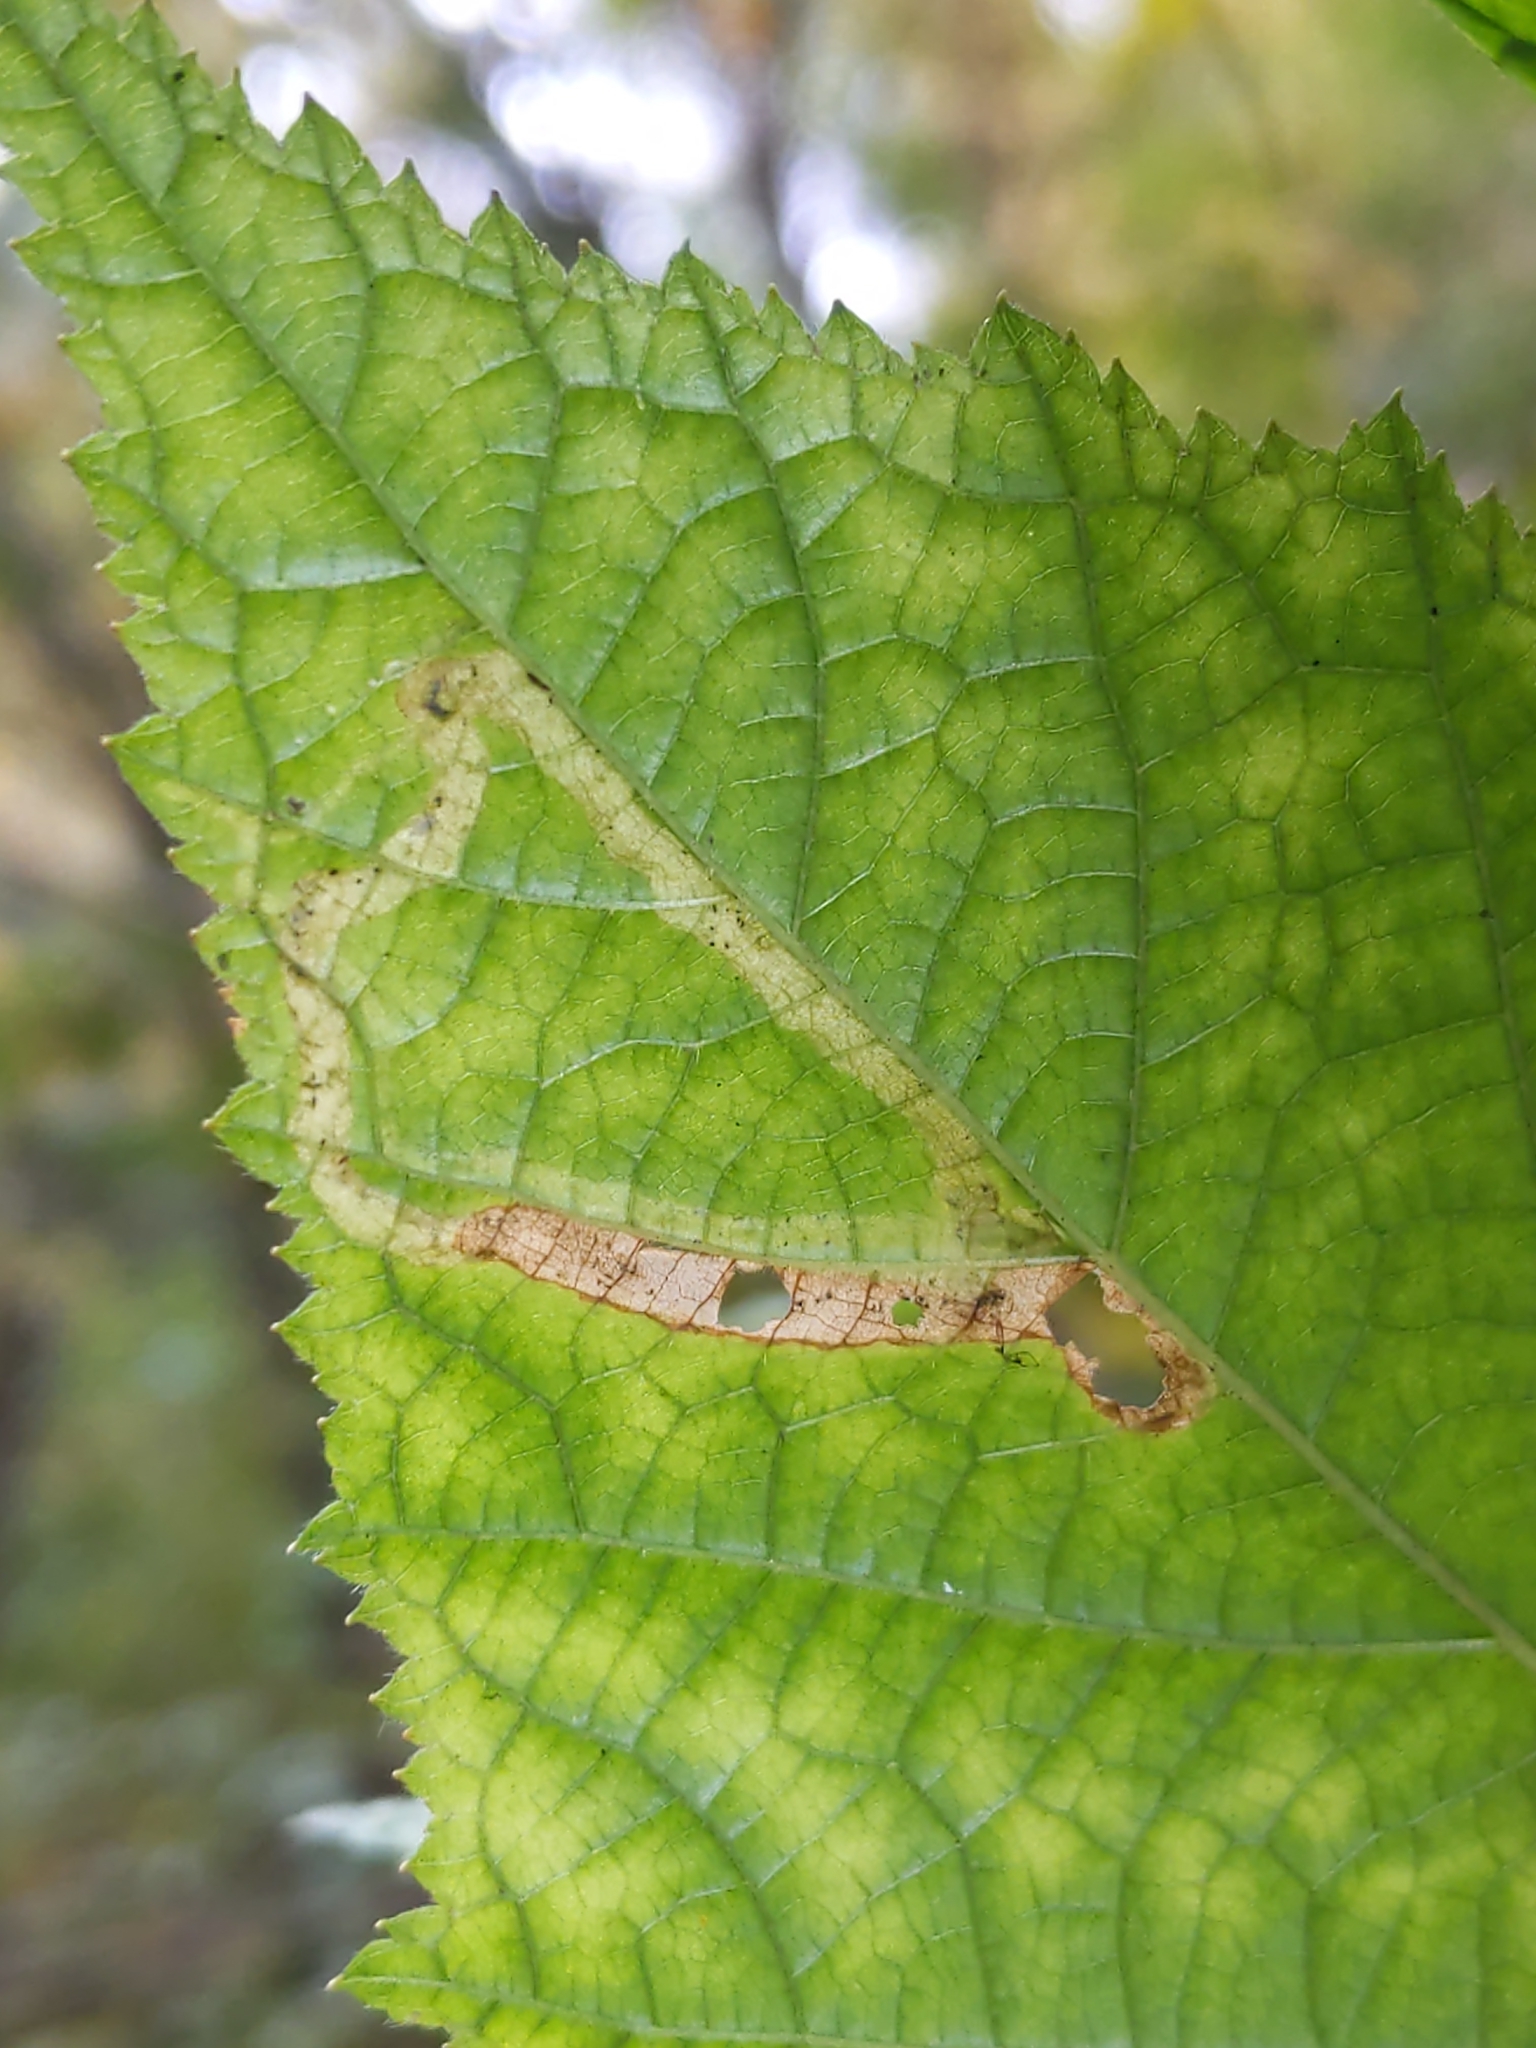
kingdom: Animalia
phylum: Arthropoda
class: Insecta
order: Diptera
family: Agromyzidae
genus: Agromyza
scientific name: Agromyza vockerothi
